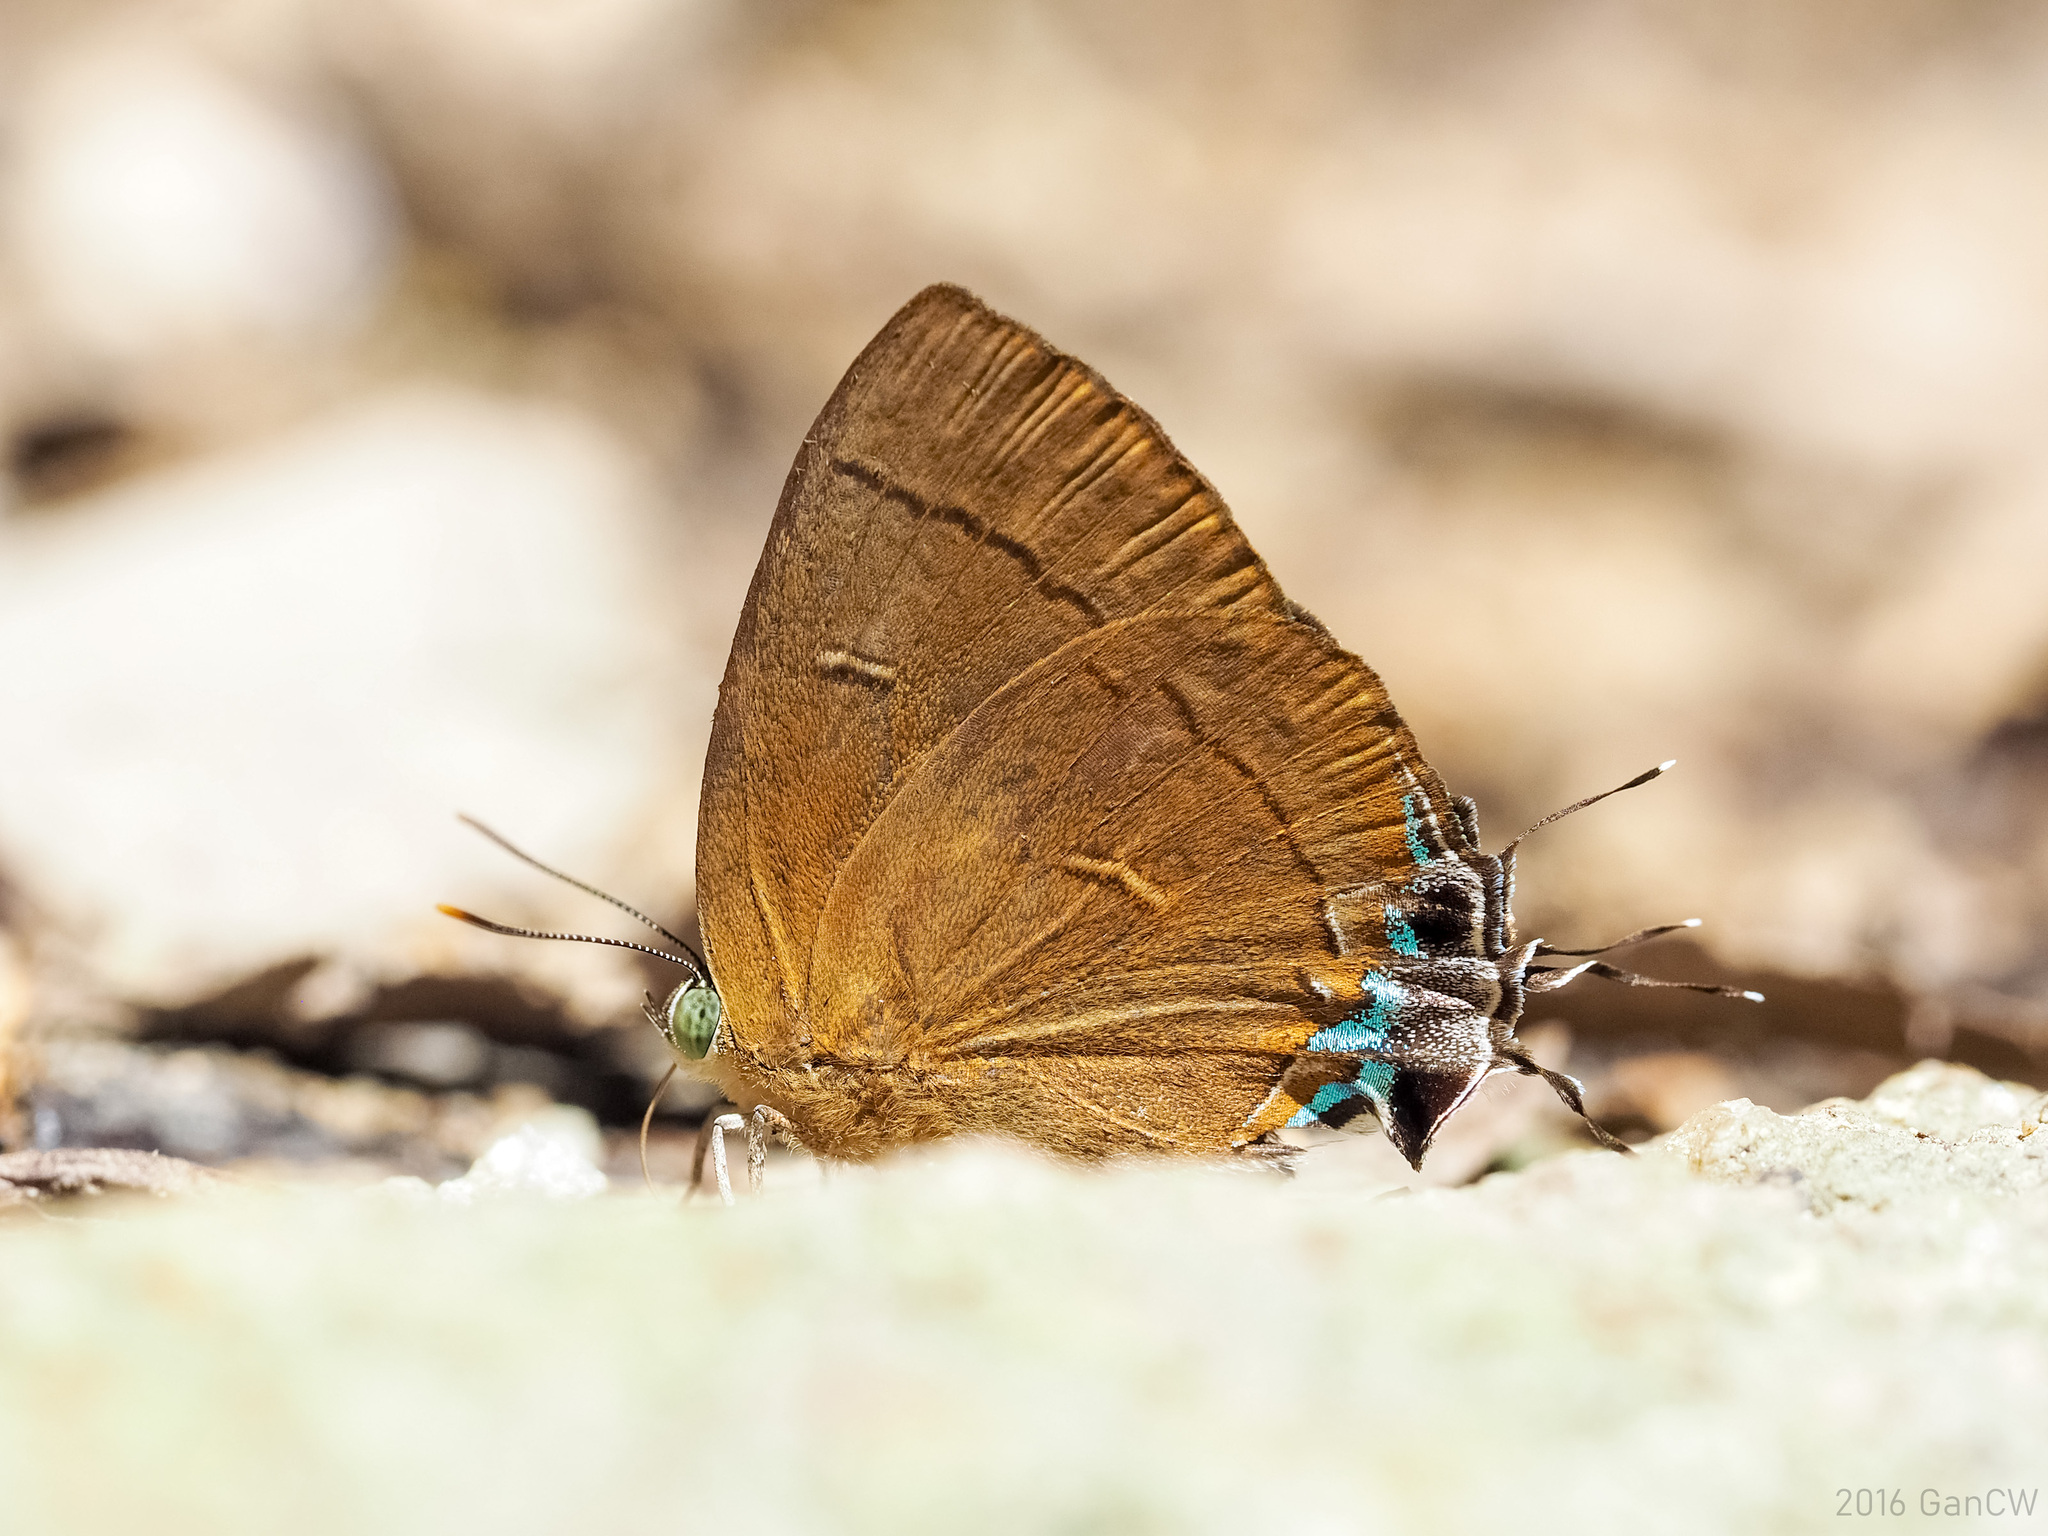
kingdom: Animalia
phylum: Arthropoda
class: Insecta
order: Lepidoptera
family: Lycaenidae
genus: Remelana
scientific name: Remelana jangala
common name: Chocolate royal
